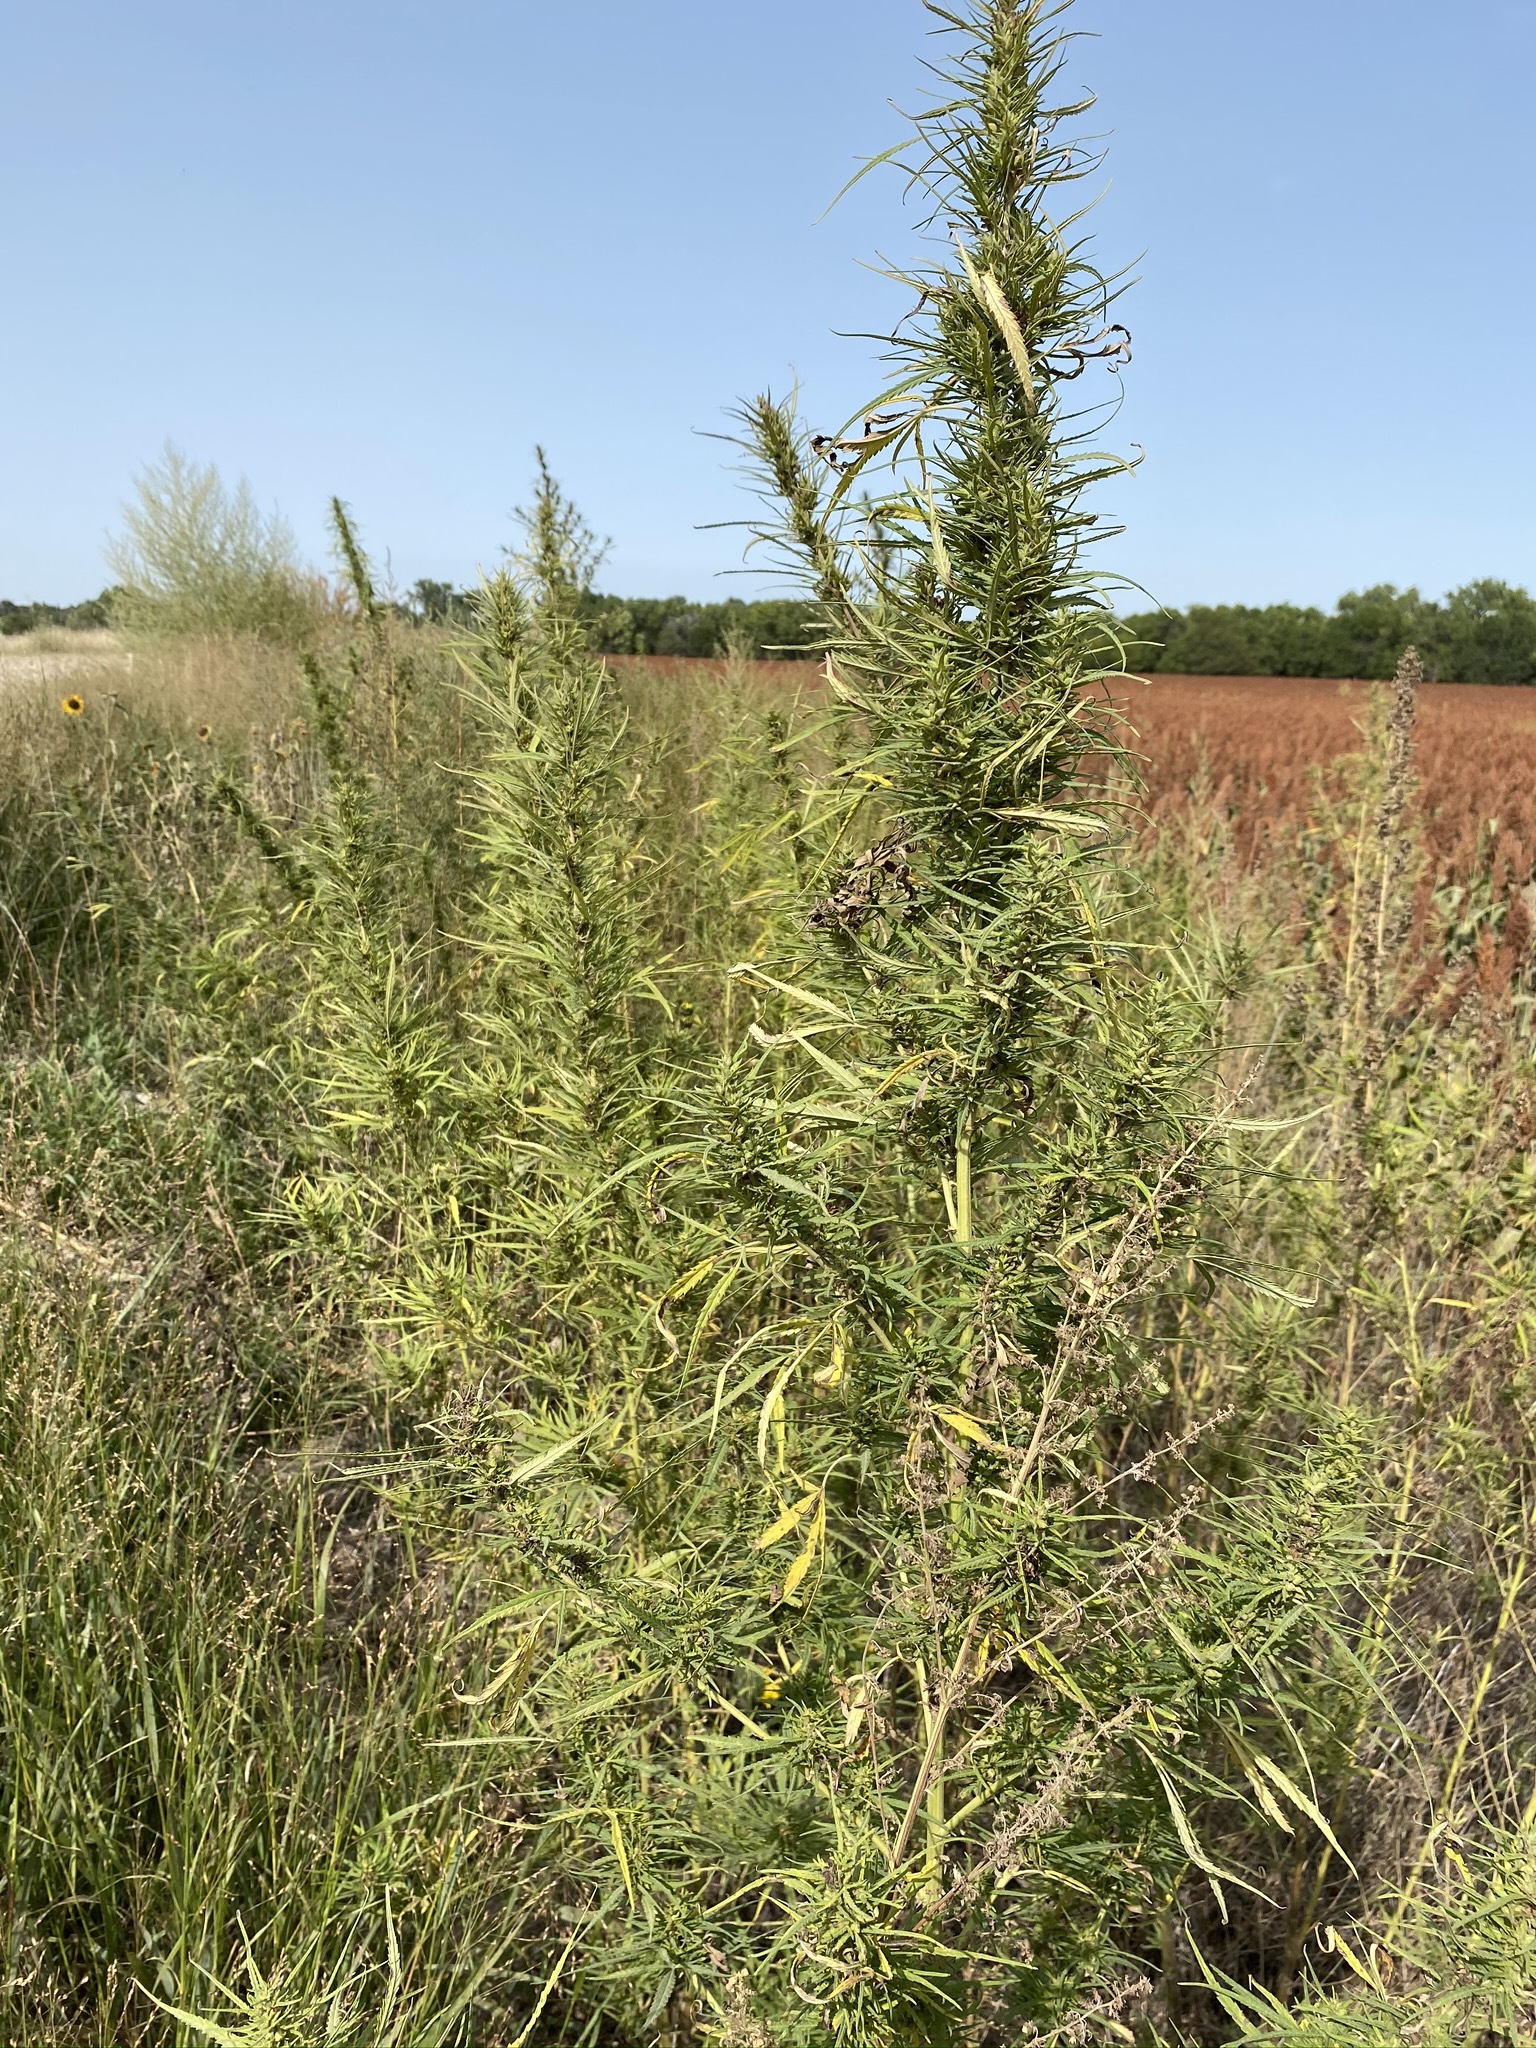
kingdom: Plantae
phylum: Tracheophyta
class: Magnoliopsida
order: Rosales
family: Cannabaceae
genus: Cannabis
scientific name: Cannabis sativa
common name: Hemp
